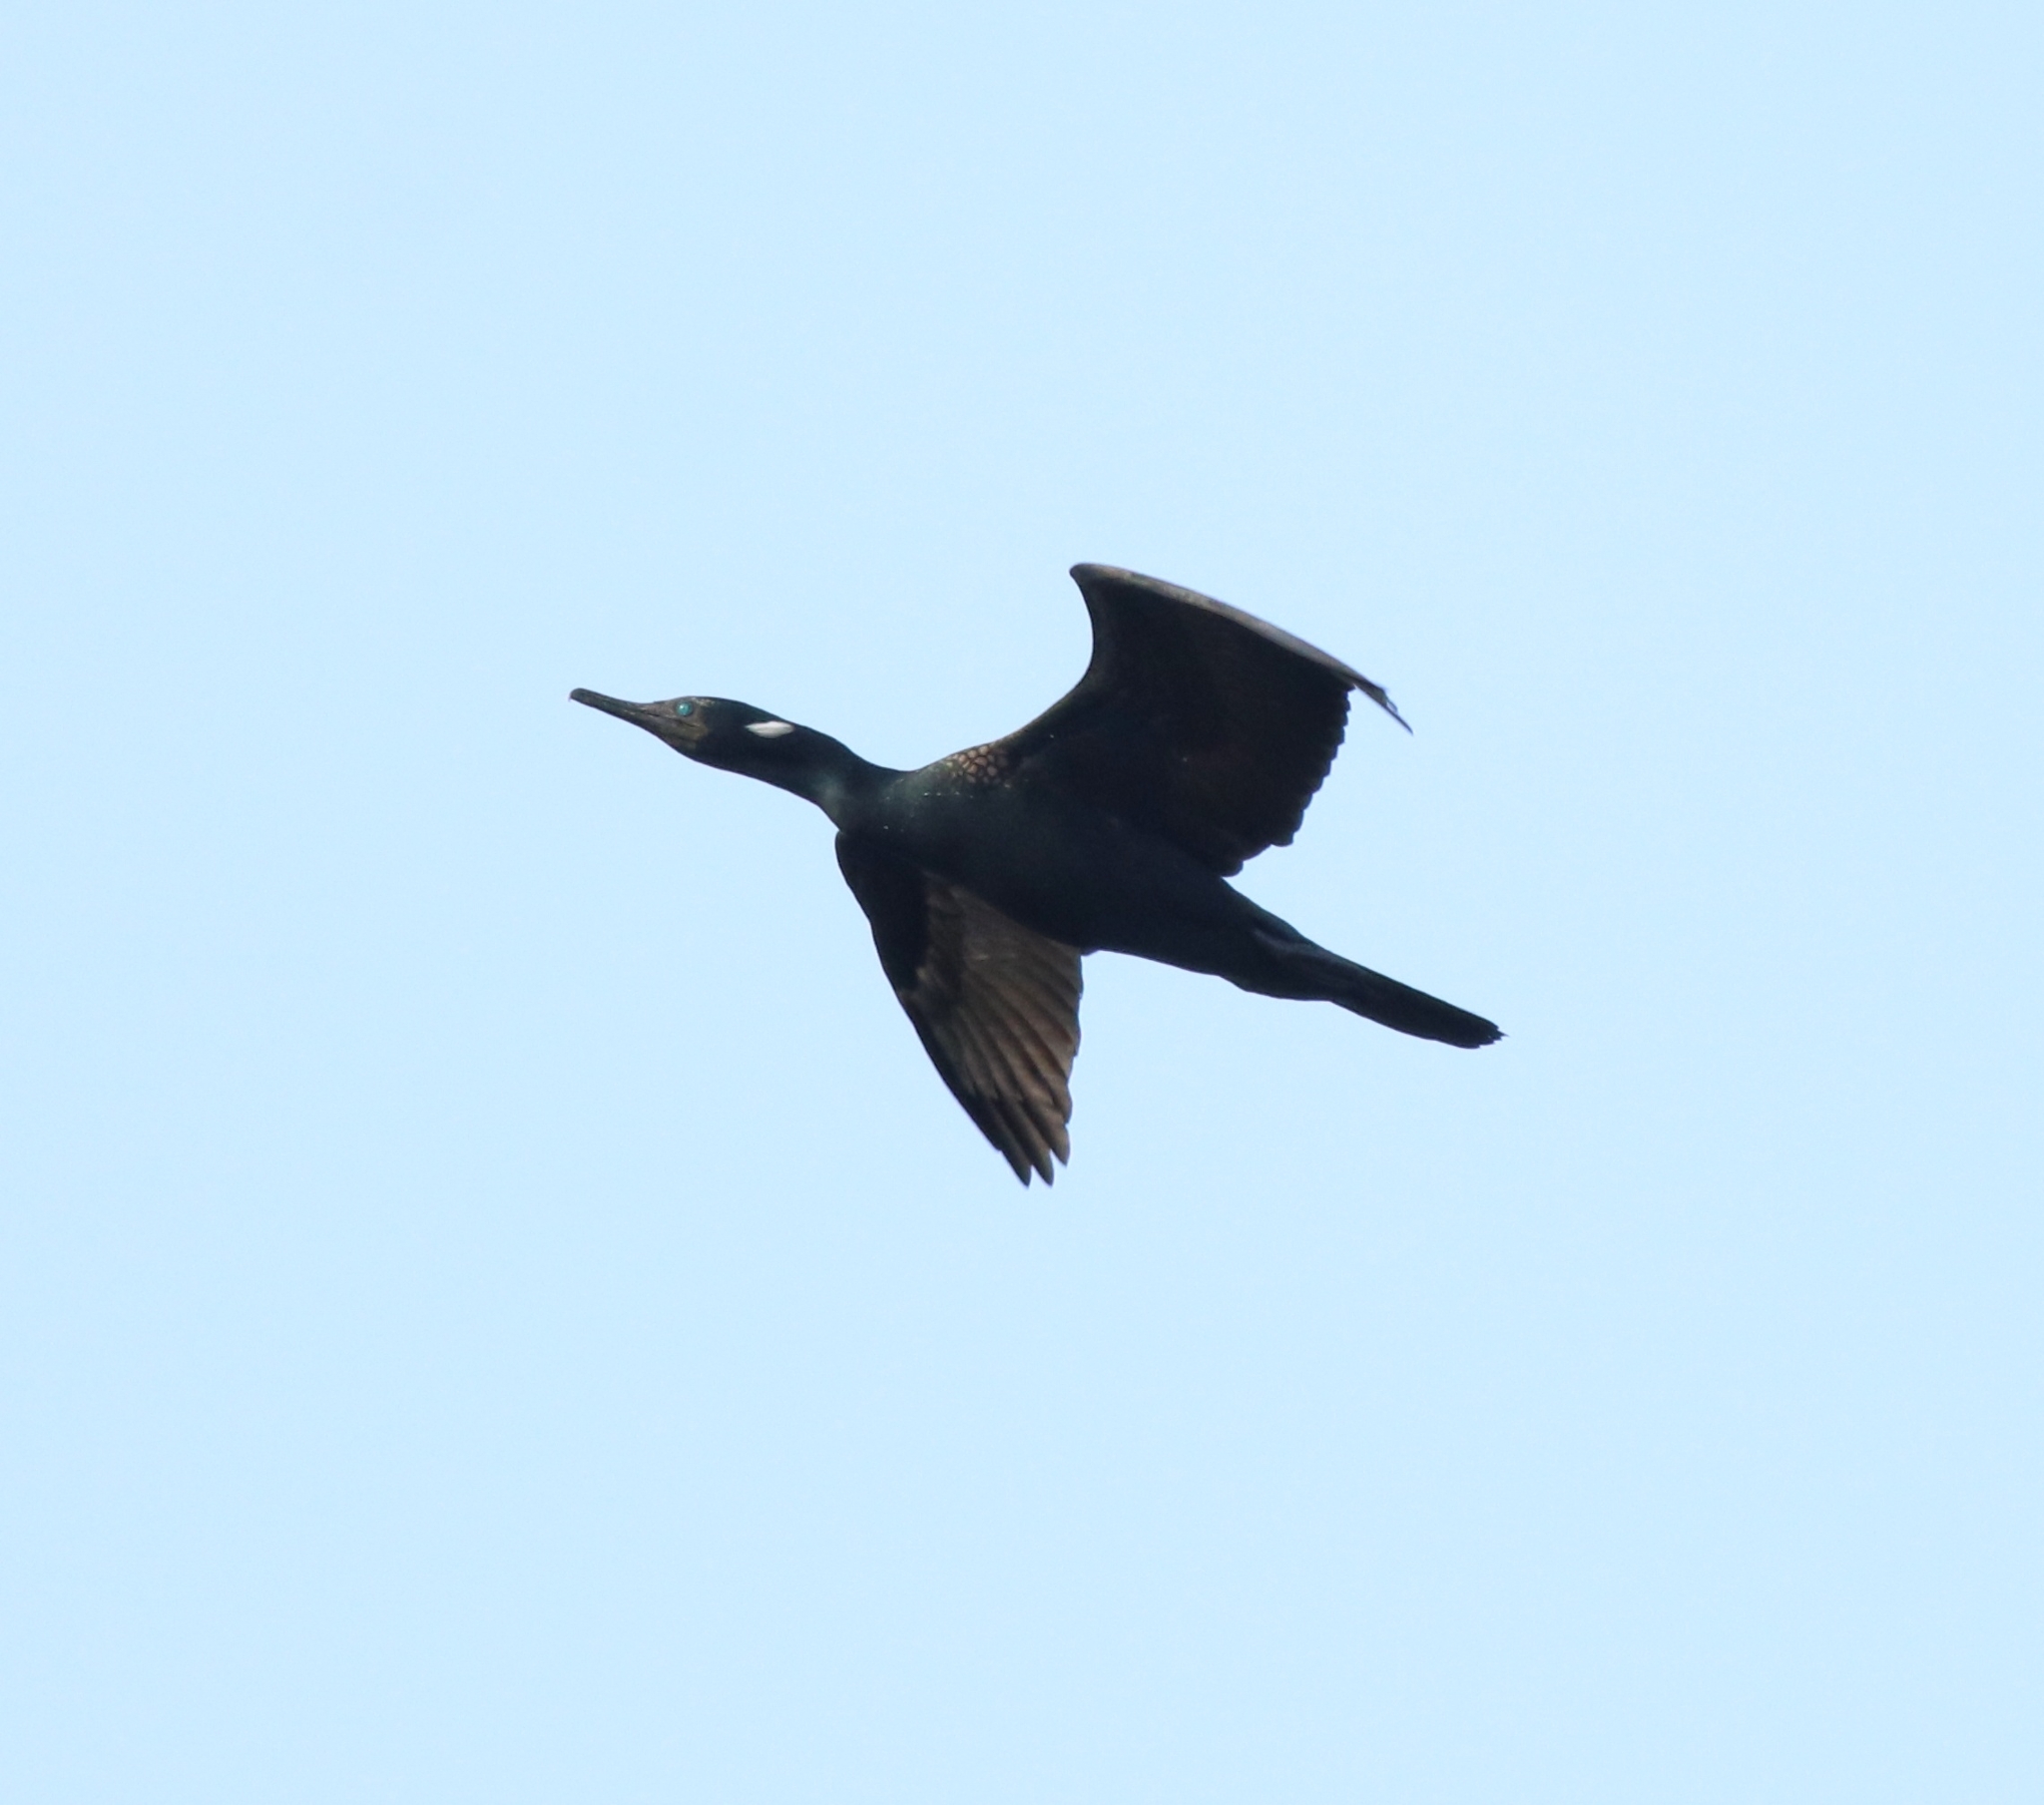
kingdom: Animalia
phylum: Chordata
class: Aves
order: Suliformes
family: Phalacrocoracidae
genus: Phalacrocorax
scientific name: Phalacrocorax fuscicollis
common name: Indian cormorant
